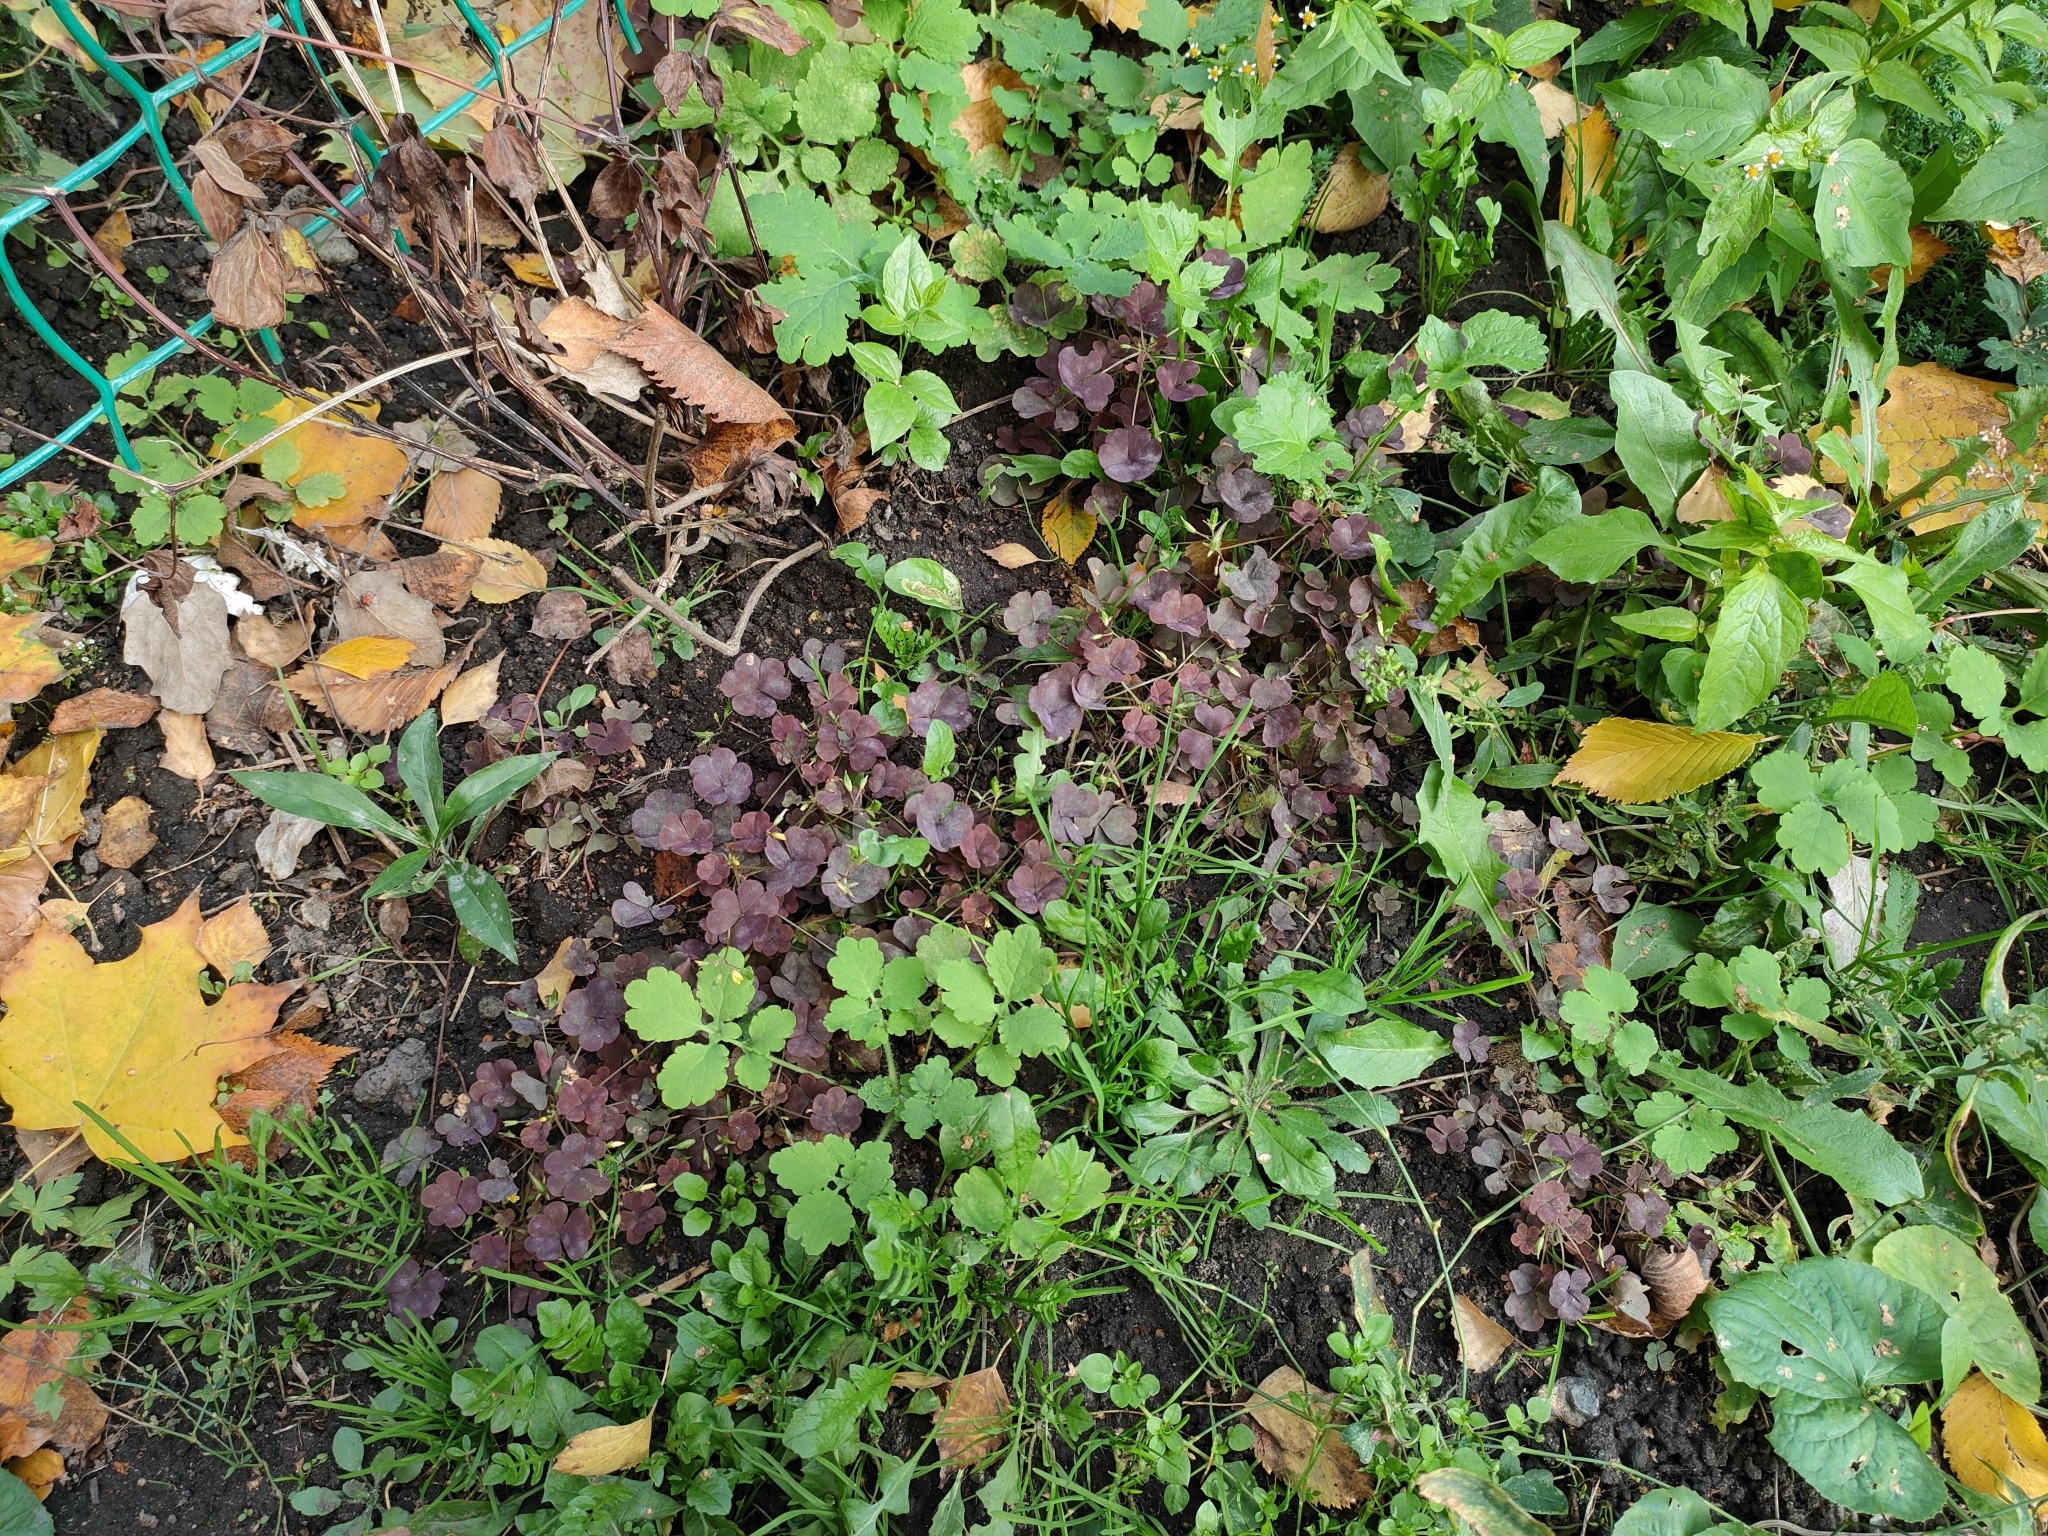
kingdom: Plantae
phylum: Tracheophyta
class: Magnoliopsida
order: Oxalidales
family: Oxalidaceae
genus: Oxalis
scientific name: Oxalis stricta
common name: Upright yellow-sorrel
